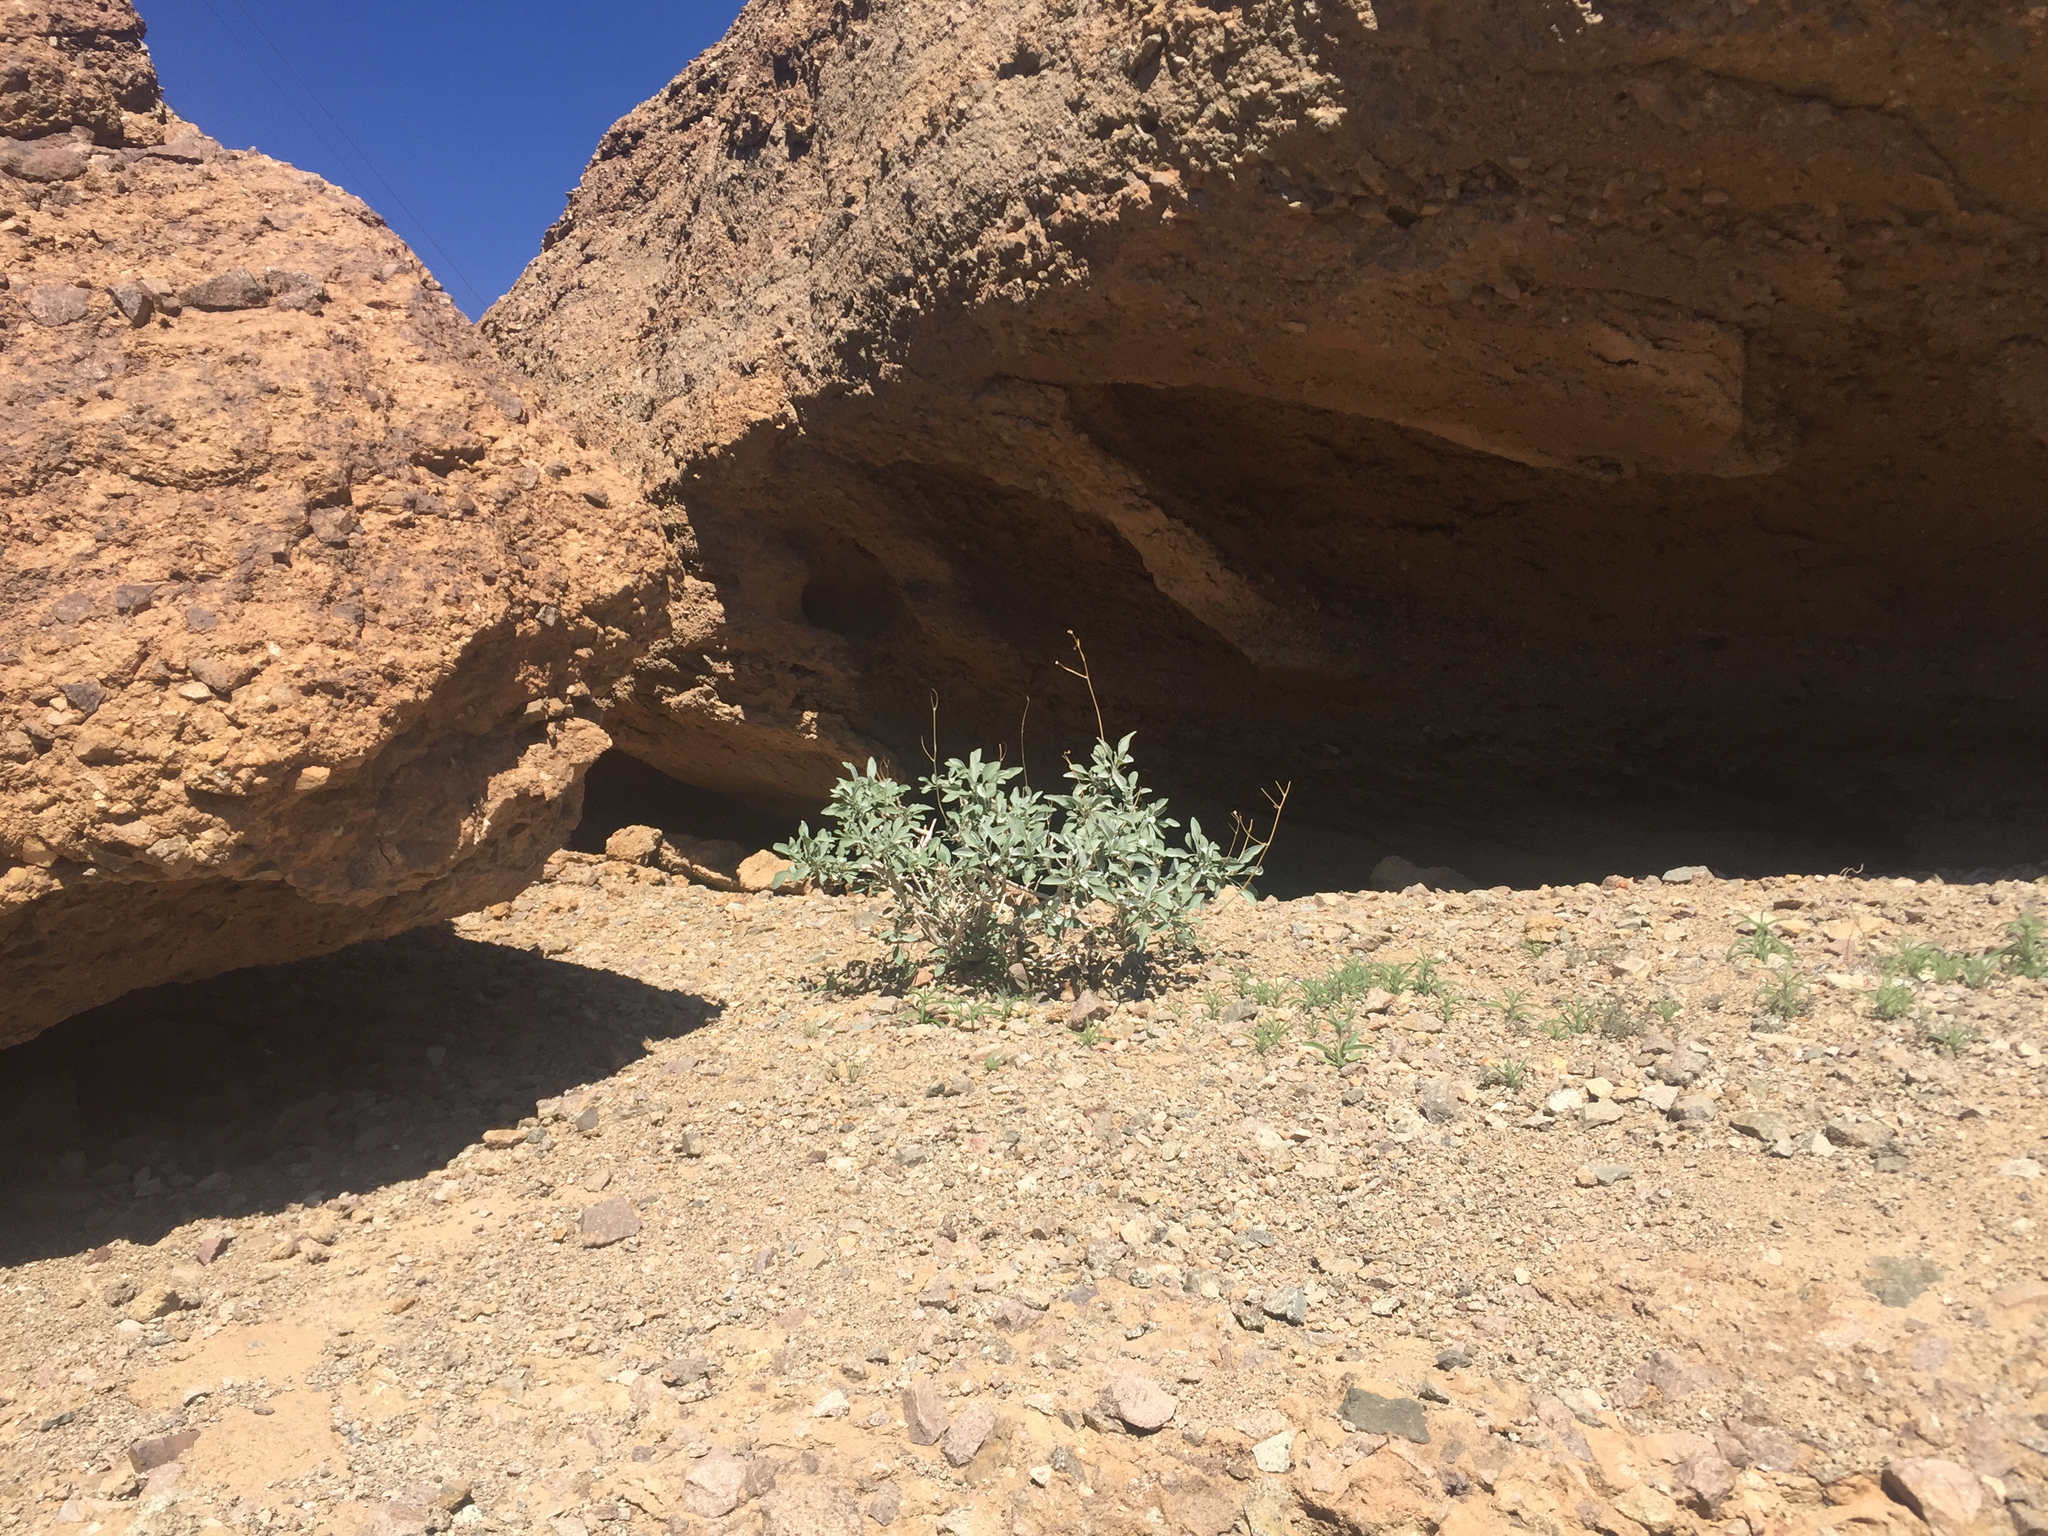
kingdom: Plantae
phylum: Tracheophyta
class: Magnoliopsida
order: Asterales
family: Asteraceae
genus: Encelia
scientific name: Encelia farinosa
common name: Brittlebush
